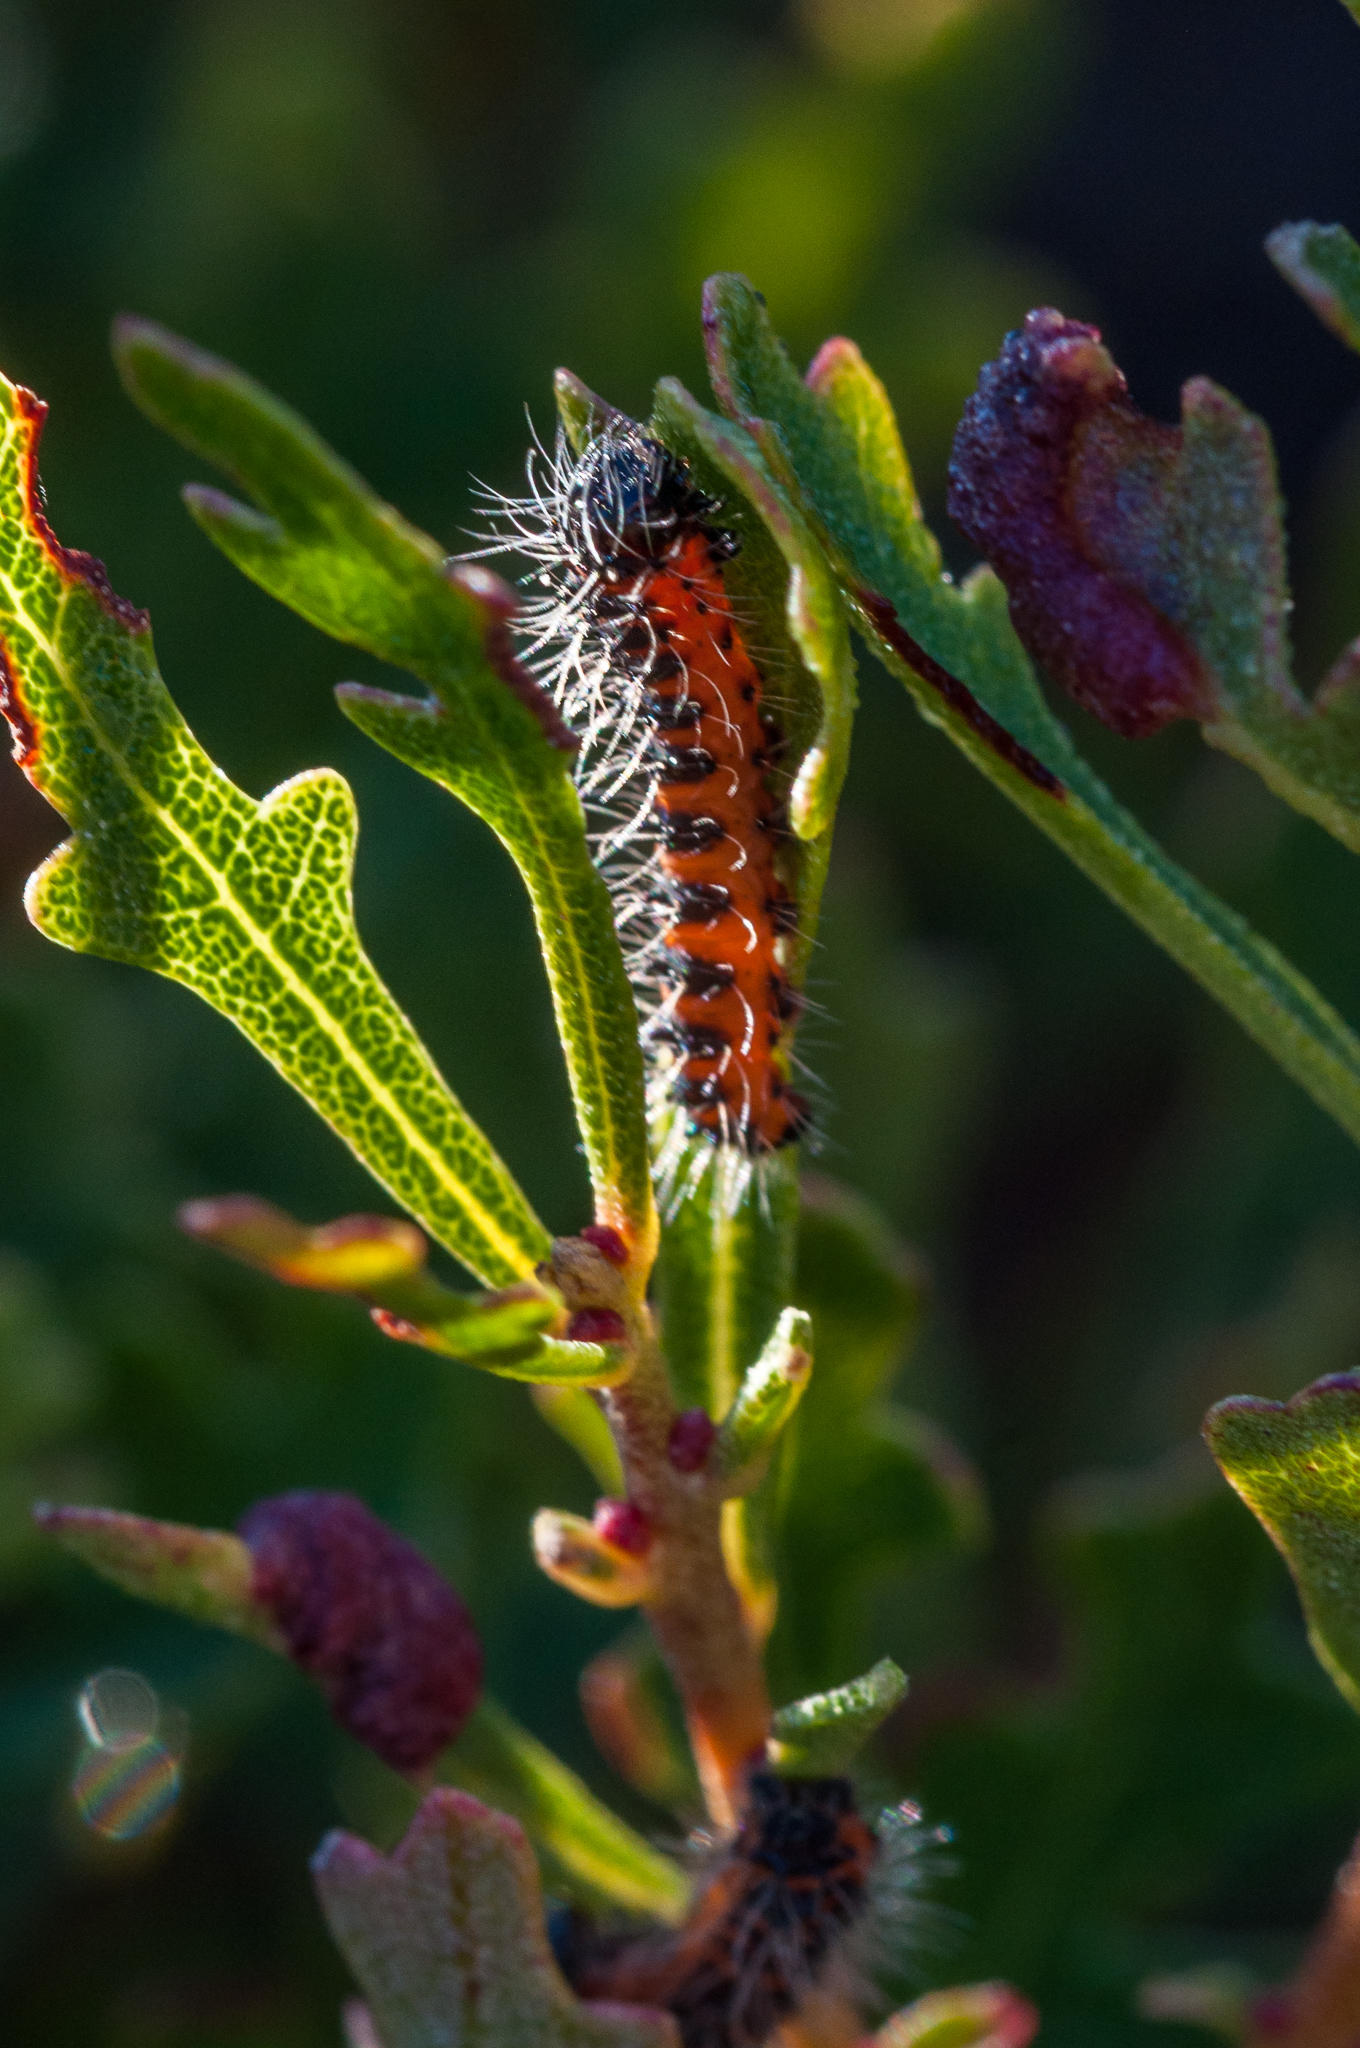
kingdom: Animalia
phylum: Arthropoda
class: Insecta
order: Lepidoptera
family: Saturniidae
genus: Nudaurelia
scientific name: Nudaurelia cytherea
